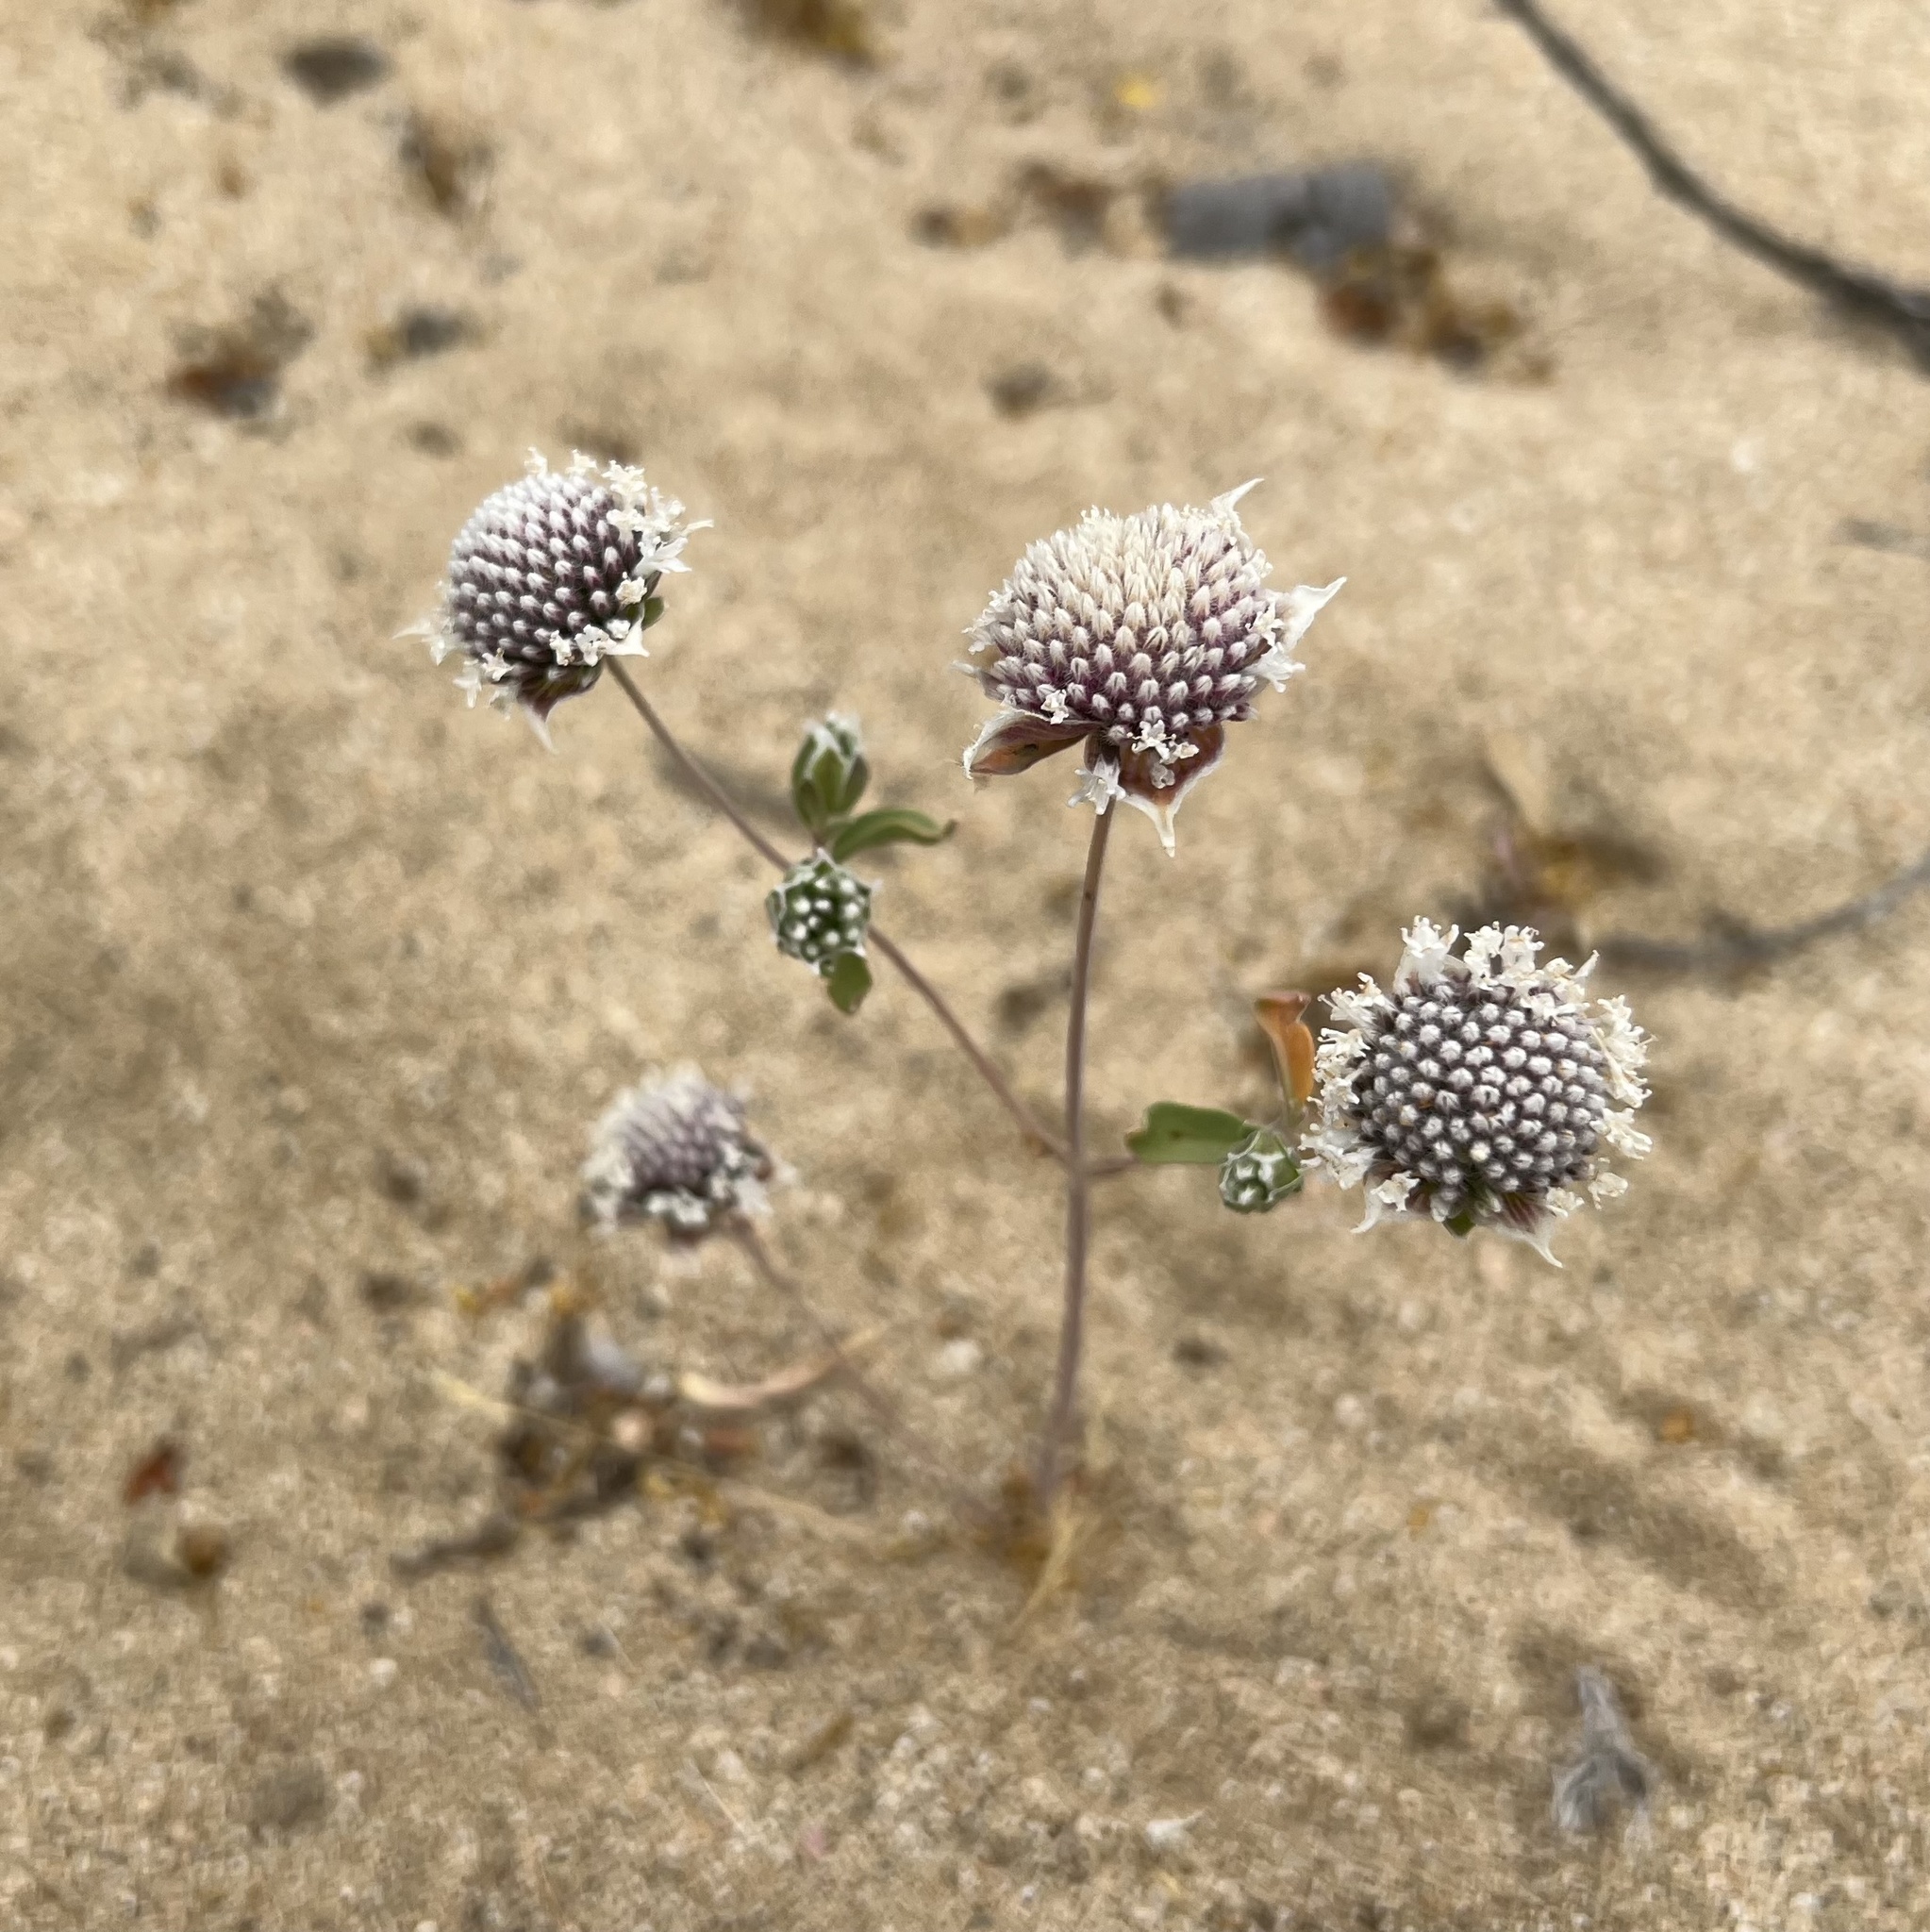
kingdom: Plantae
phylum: Tracheophyta
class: Magnoliopsida
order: Lamiales
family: Lamiaceae
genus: Monardella
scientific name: Monardella exilis
